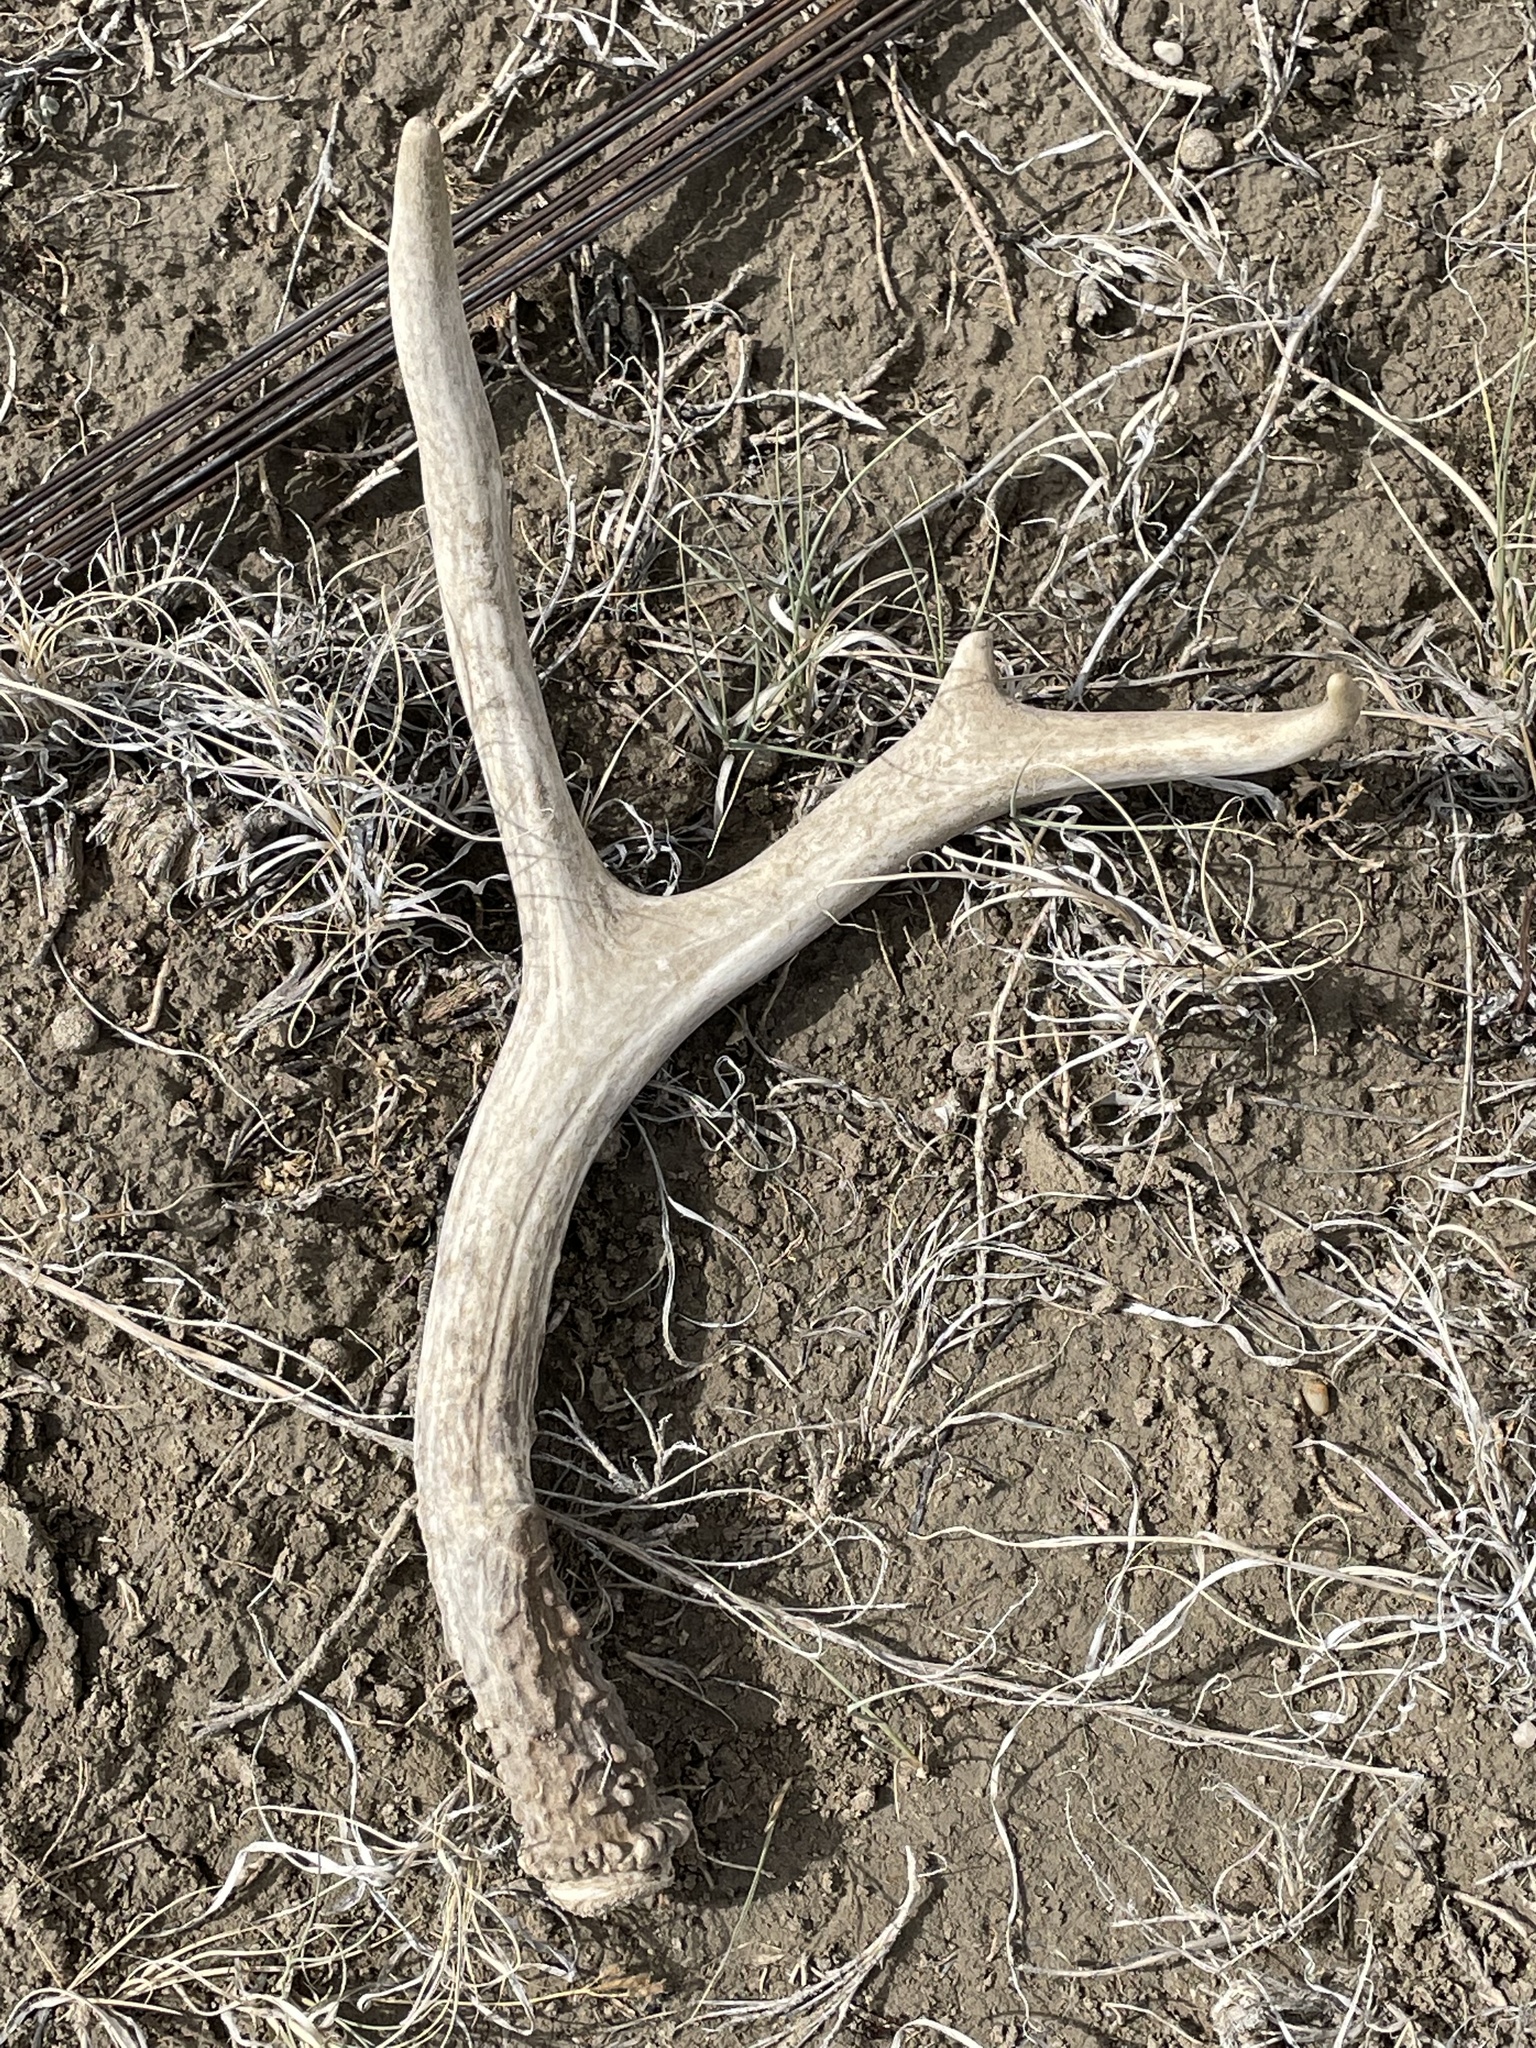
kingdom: Animalia
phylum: Chordata
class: Mammalia
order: Artiodactyla
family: Cervidae
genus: Odocoileus
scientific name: Odocoileus hemionus
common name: Mule deer
